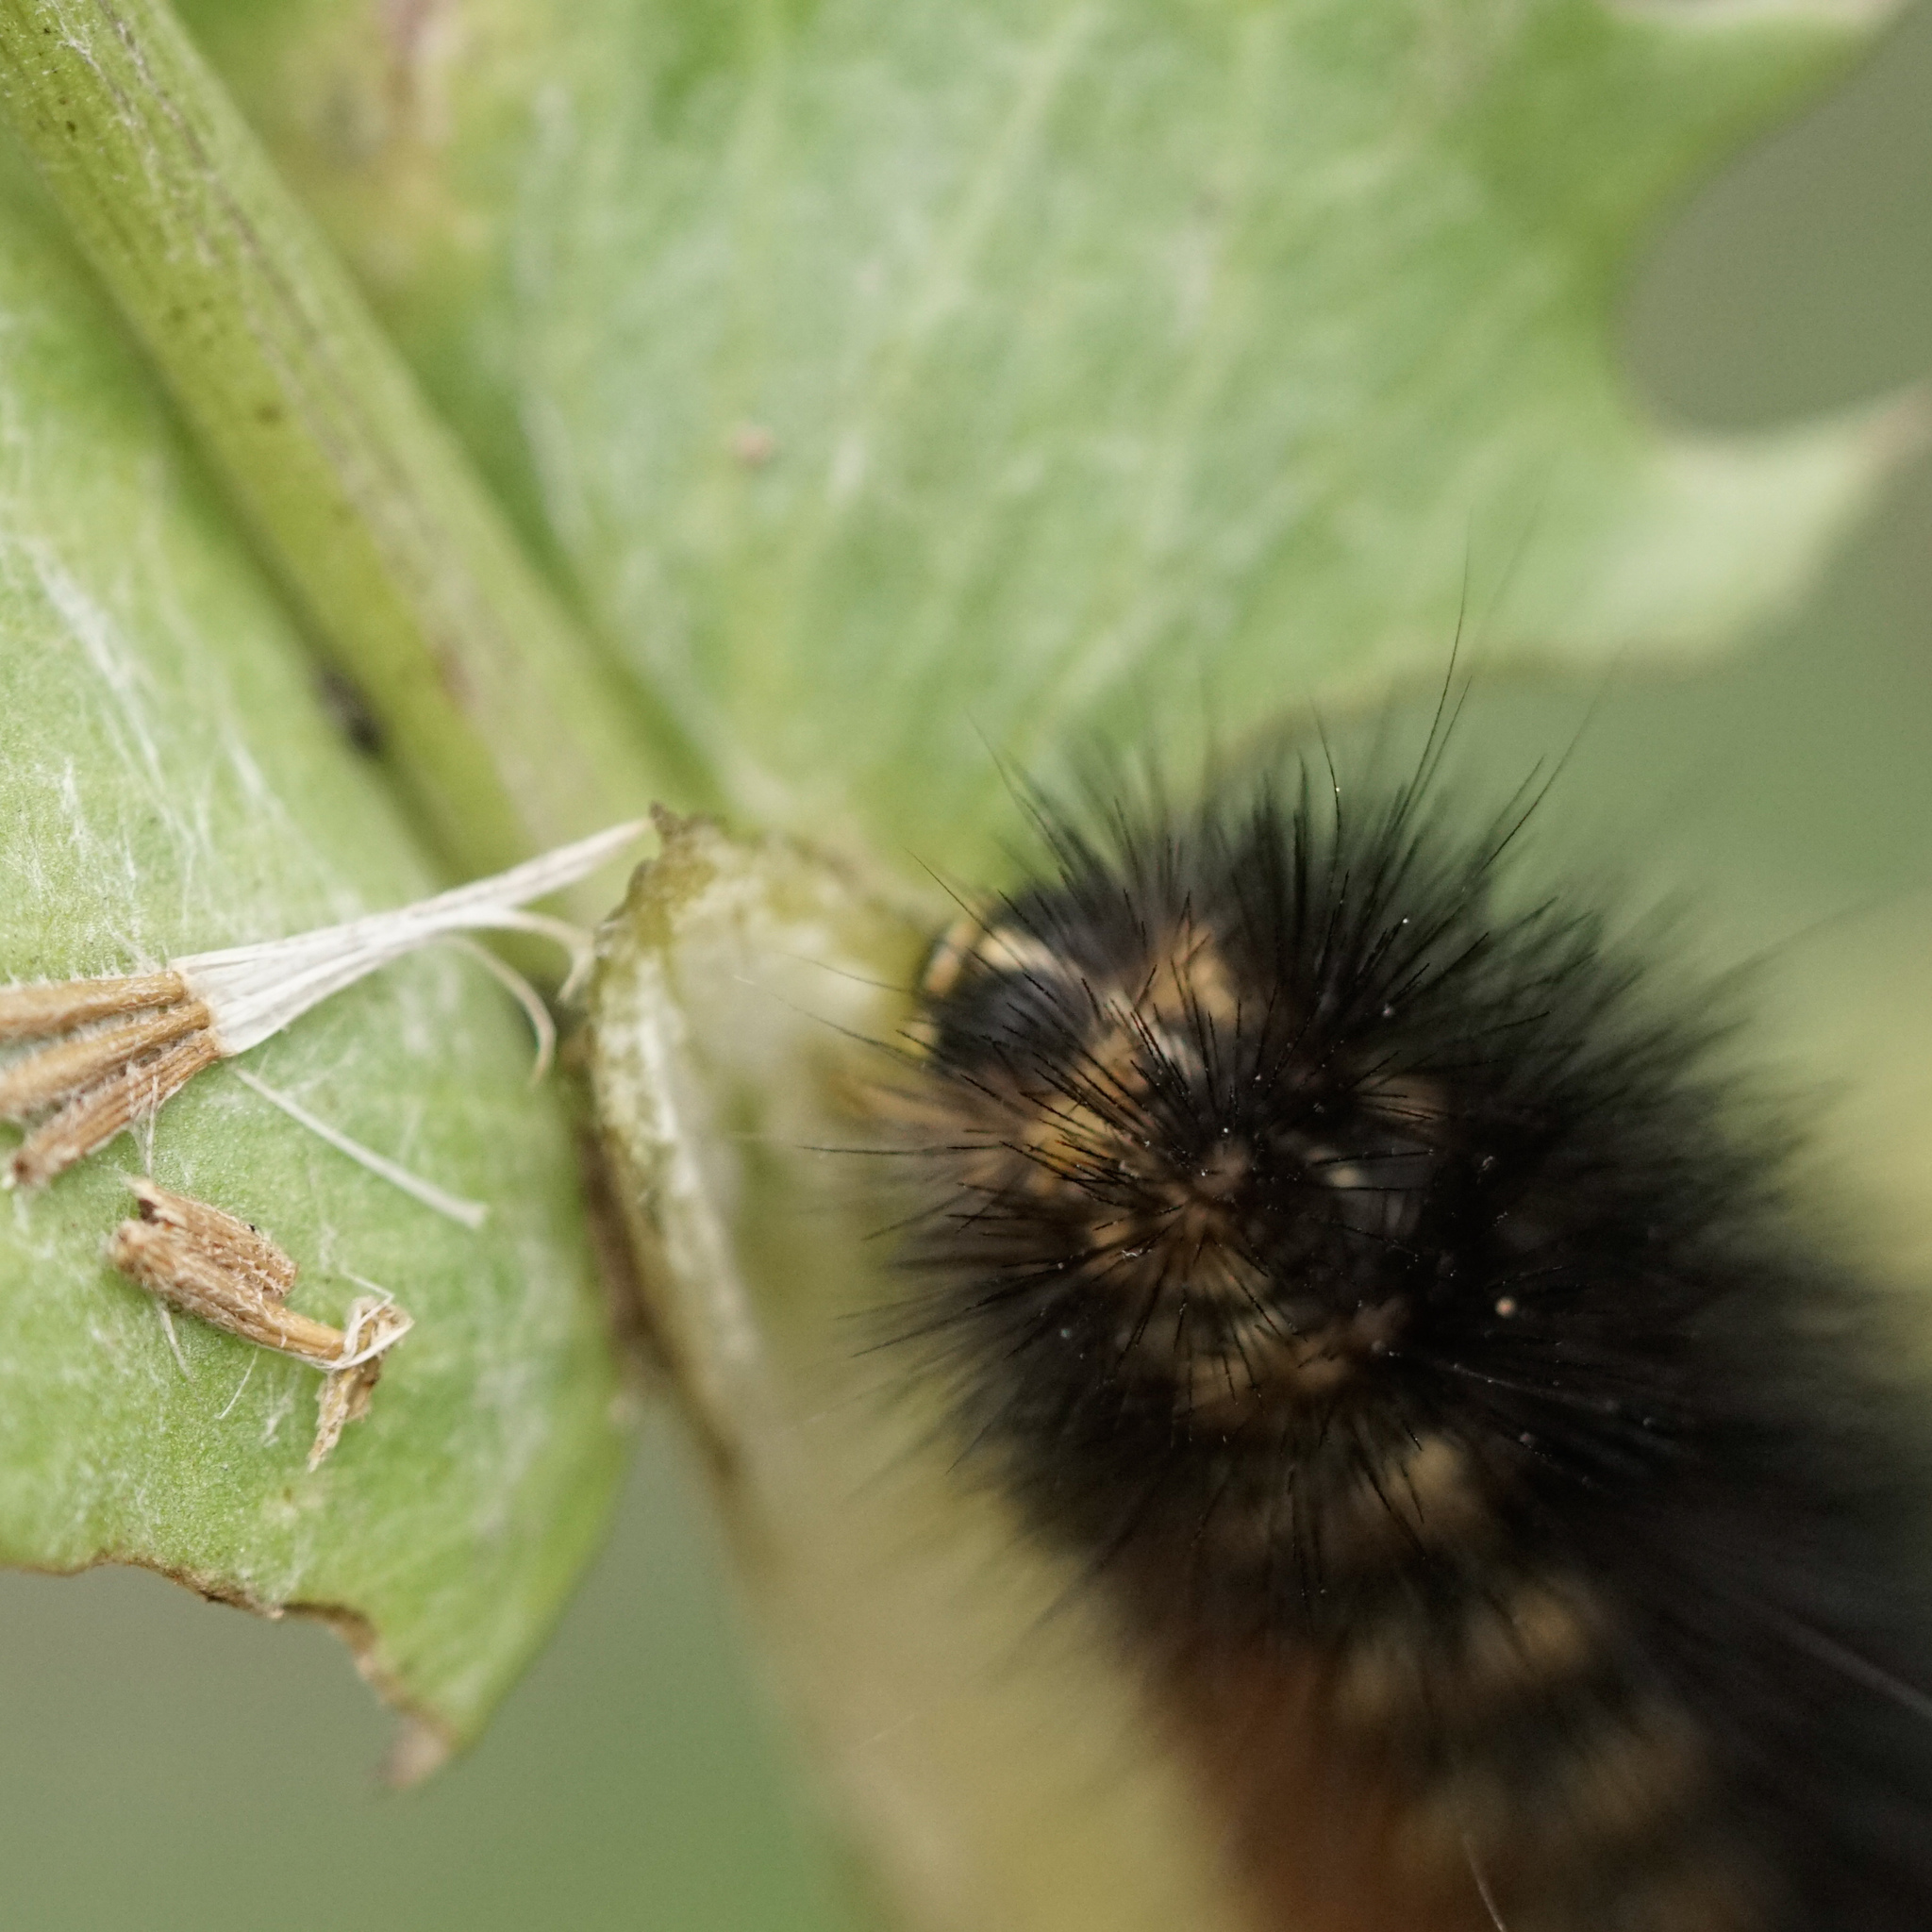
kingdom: Animalia
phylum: Arthropoda
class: Insecta
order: Lepidoptera
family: Erebidae
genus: Estigmene
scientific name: Estigmene acrea
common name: Salt marsh moth
